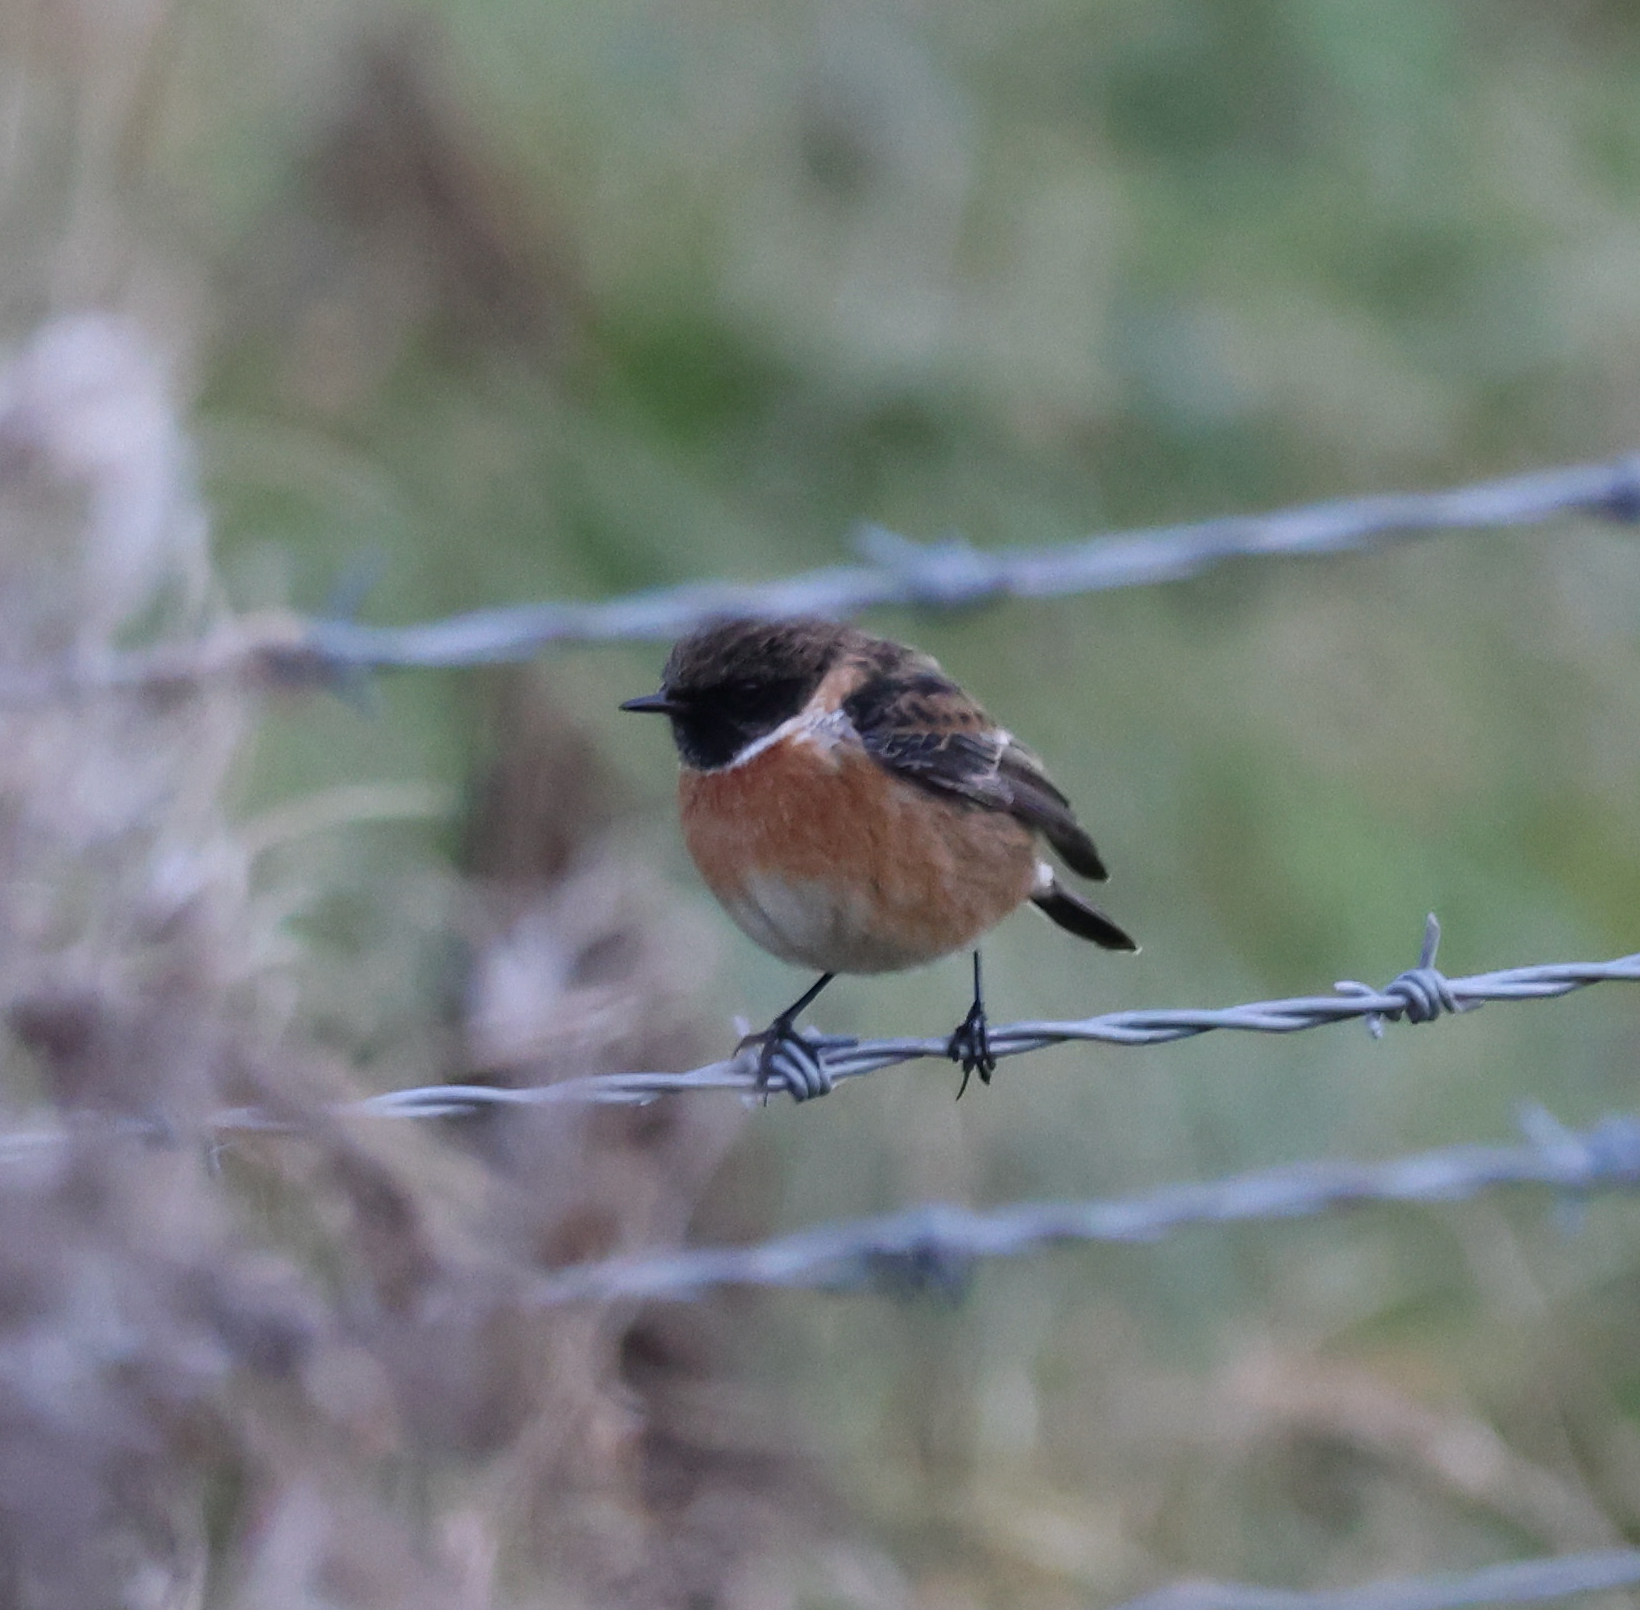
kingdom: Animalia
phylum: Chordata
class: Aves
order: Passeriformes
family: Muscicapidae
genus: Saxicola
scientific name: Saxicola rubicola
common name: European stonechat
